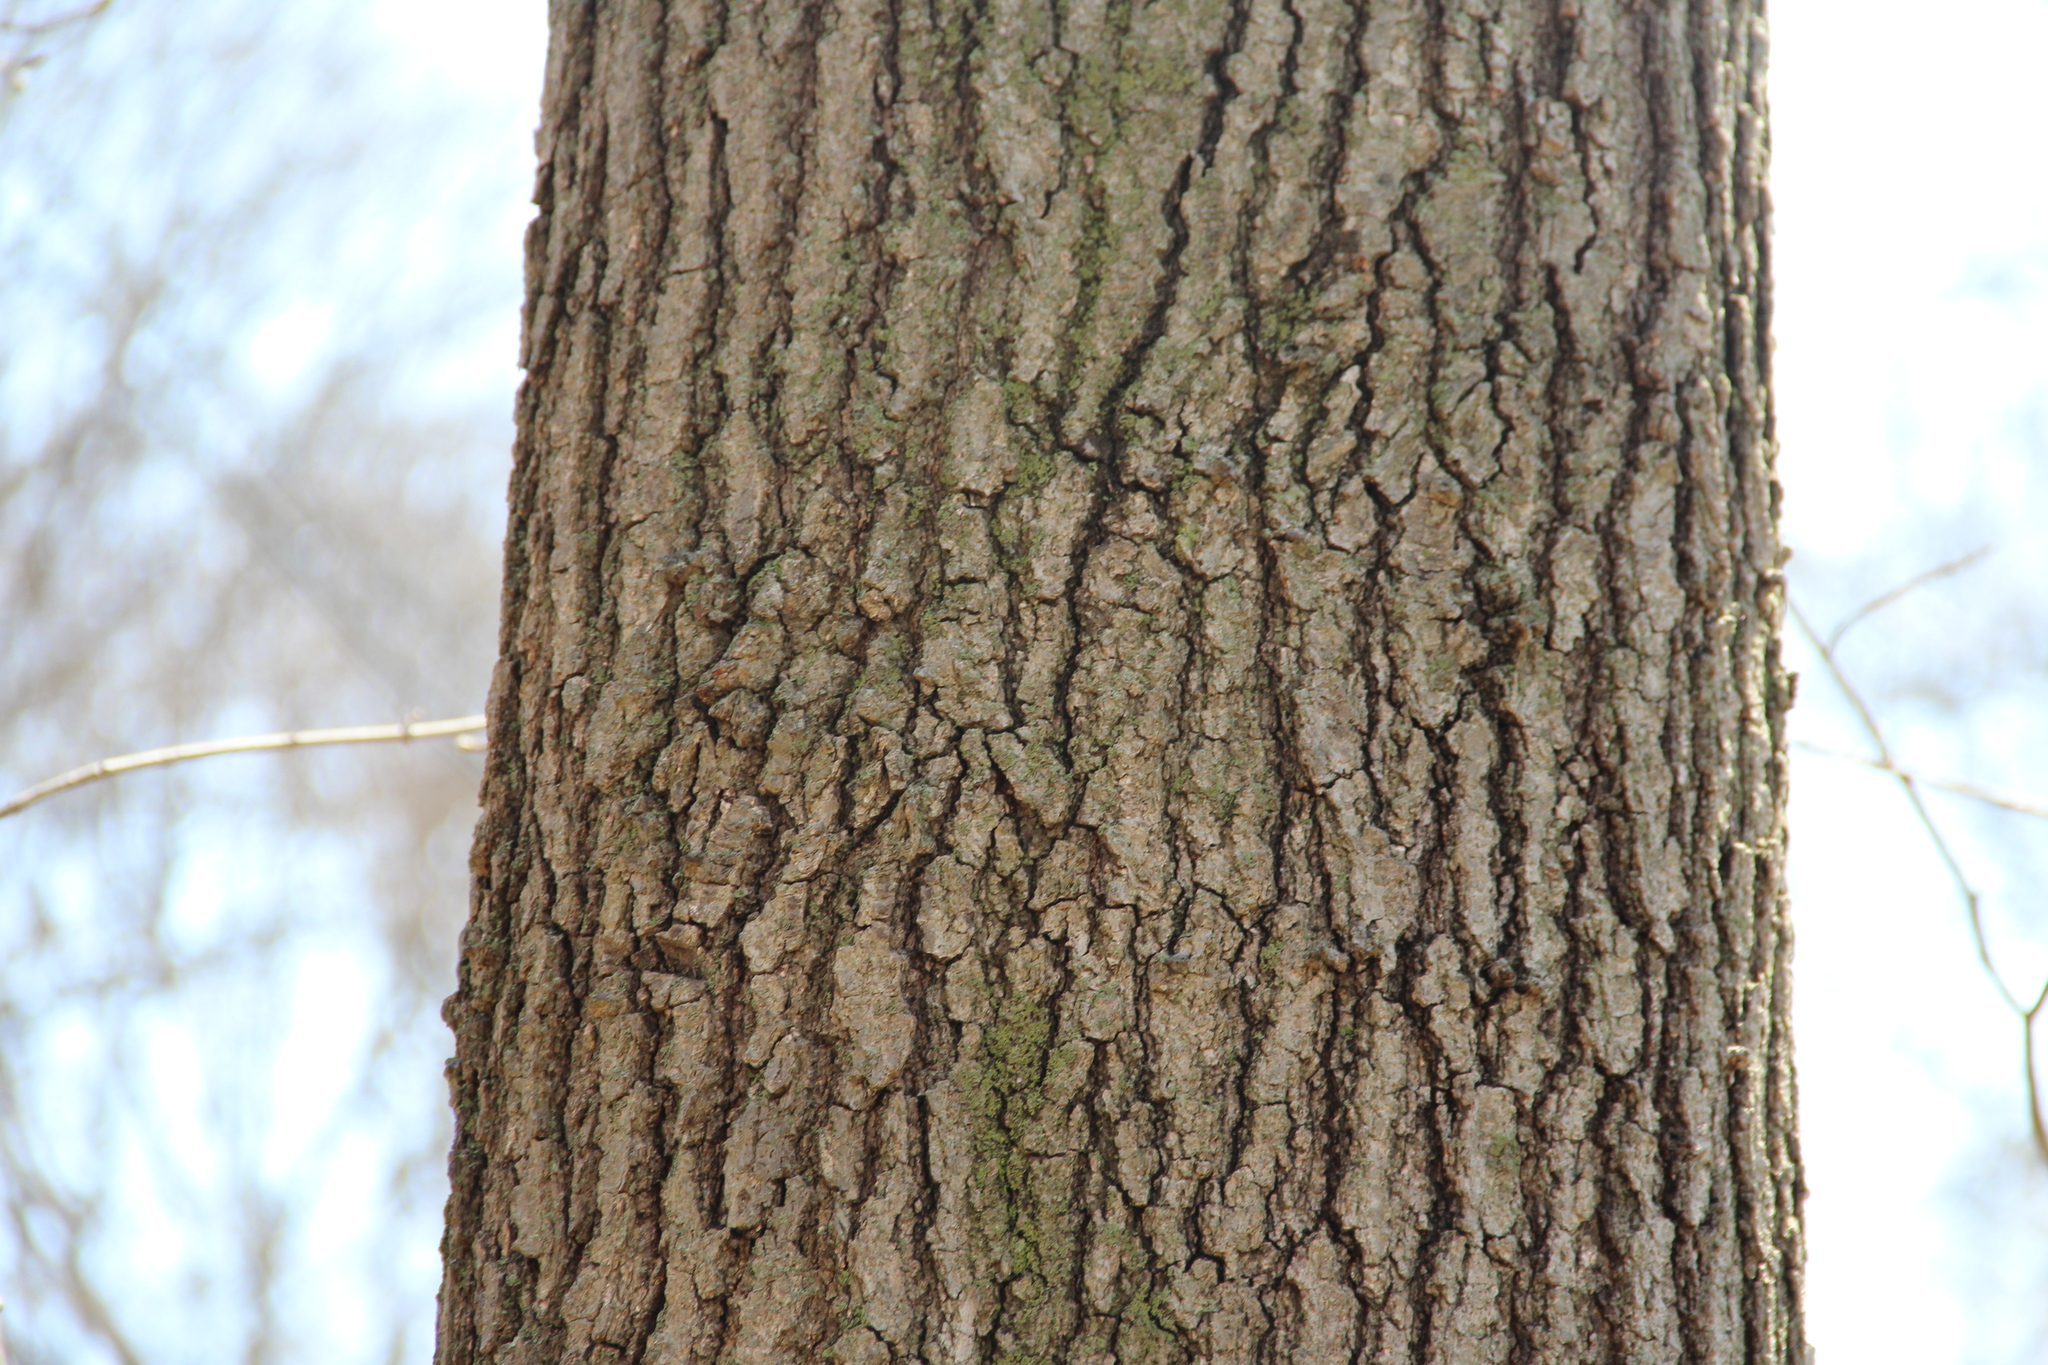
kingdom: Plantae
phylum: Tracheophyta
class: Magnoliopsida
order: Sapindales
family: Sapindaceae
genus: Acer
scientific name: Acer saccharum
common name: Sugar maple
